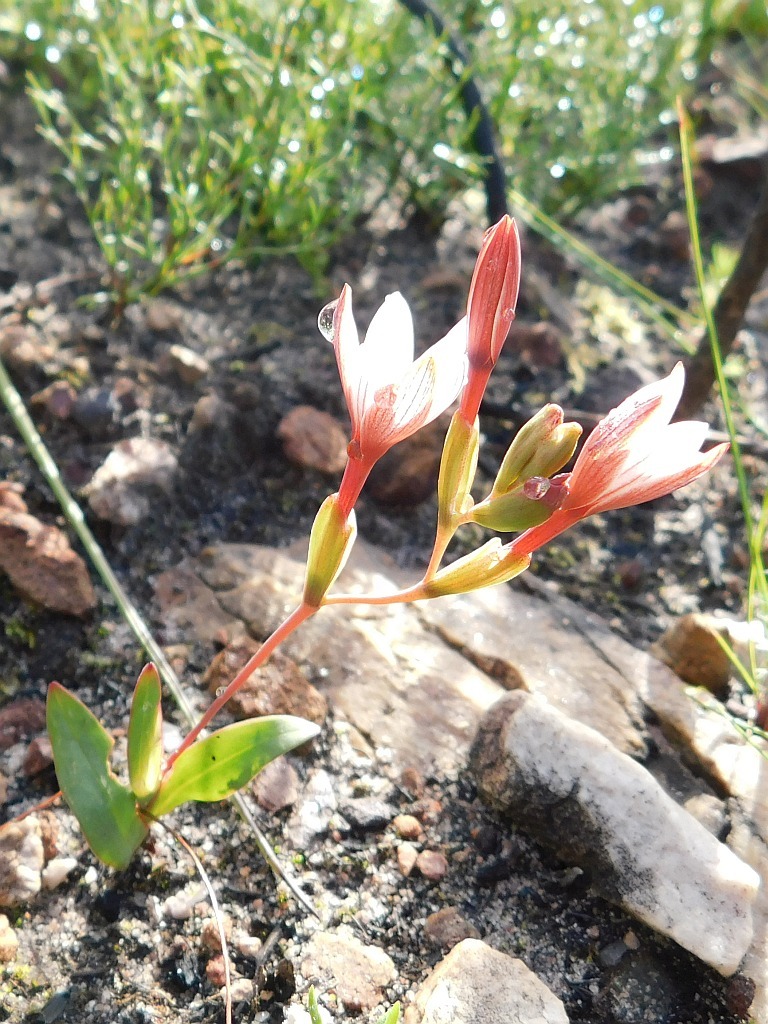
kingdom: Plantae
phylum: Tracheophyta
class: Liliopsida
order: Asparagales
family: Iridaceae
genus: Geissorhiza
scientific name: Geissorhiza ovata
